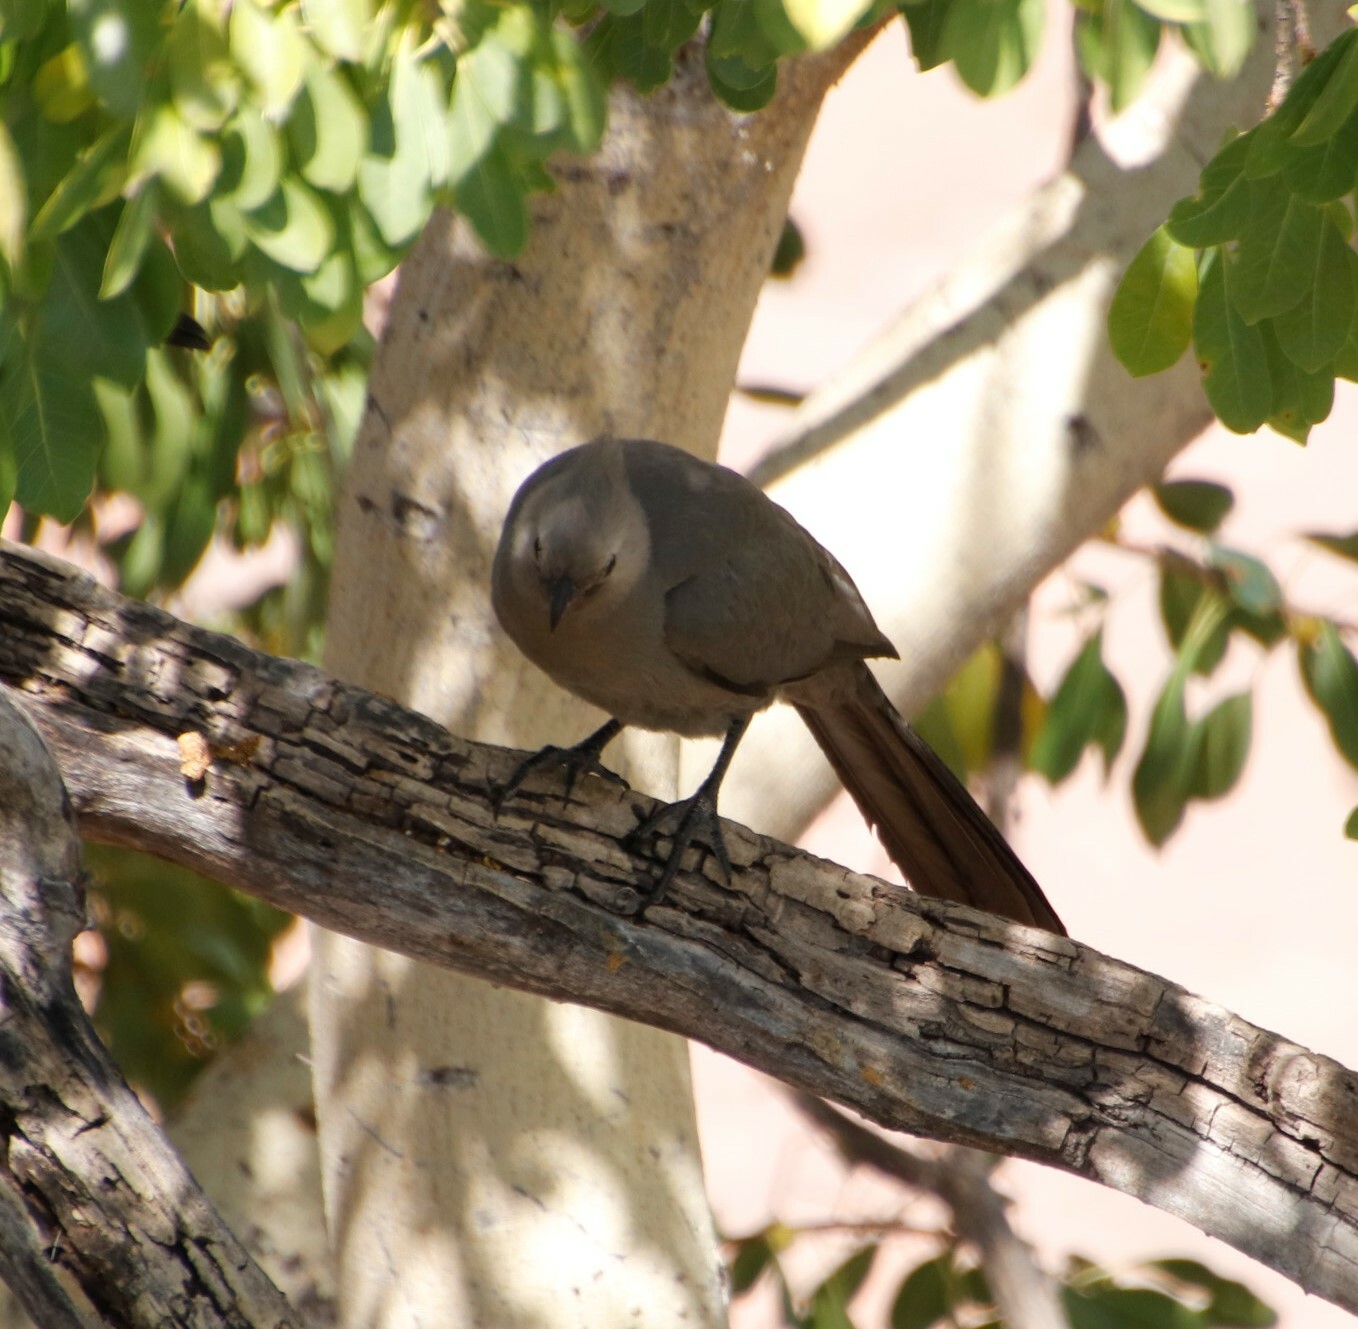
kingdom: Animalia
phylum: Chordata
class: Aves
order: Musophagiformes
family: Musophagidae
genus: Corythaixoides
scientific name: Corythaixoides concolor
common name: Grey go-away-bird
